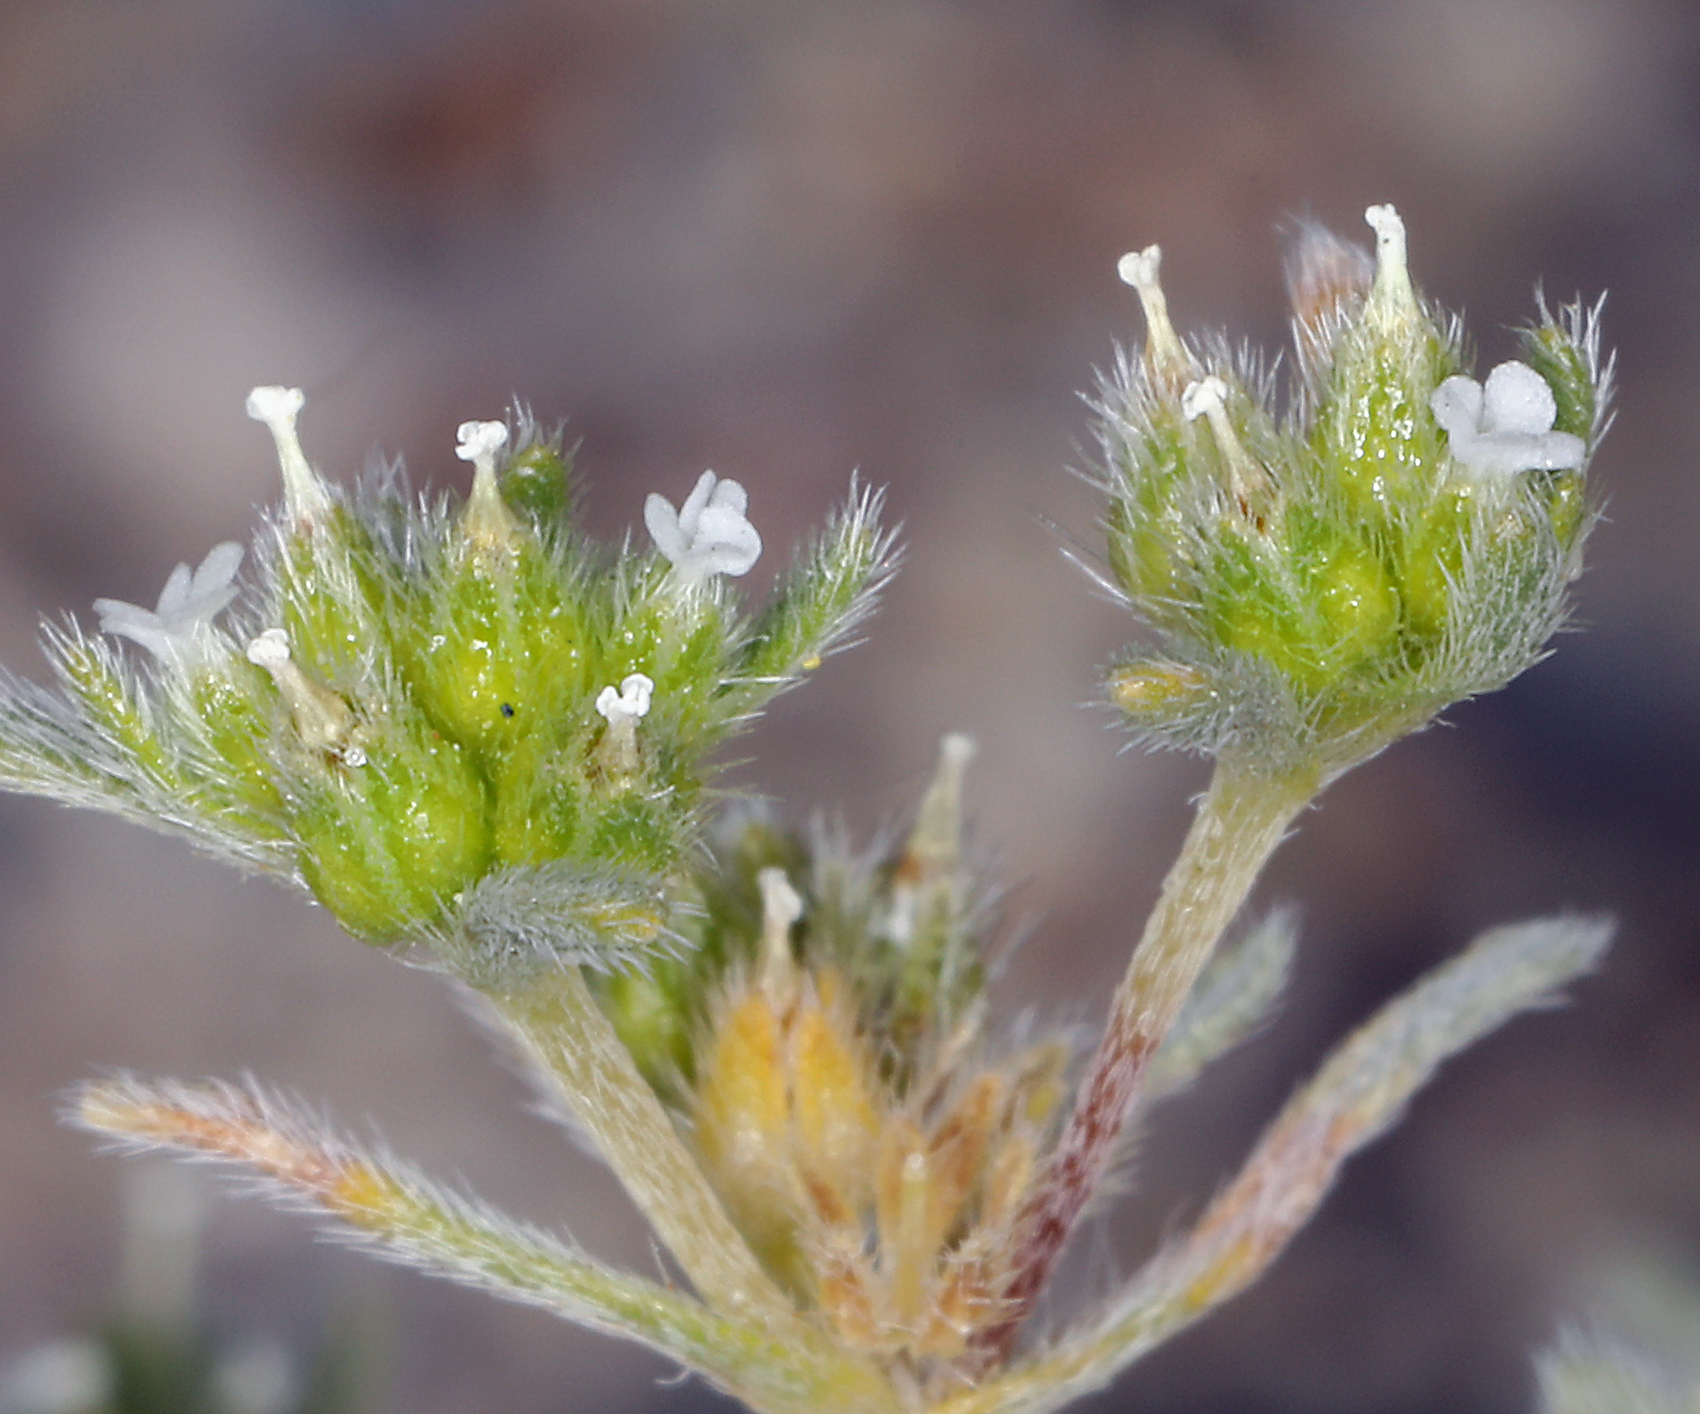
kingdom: Plantae
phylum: Tracheophyta
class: Magnoliopsida
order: Boraginales
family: Boraginaceae
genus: Eremocarya
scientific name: Eremocarya micrantha
